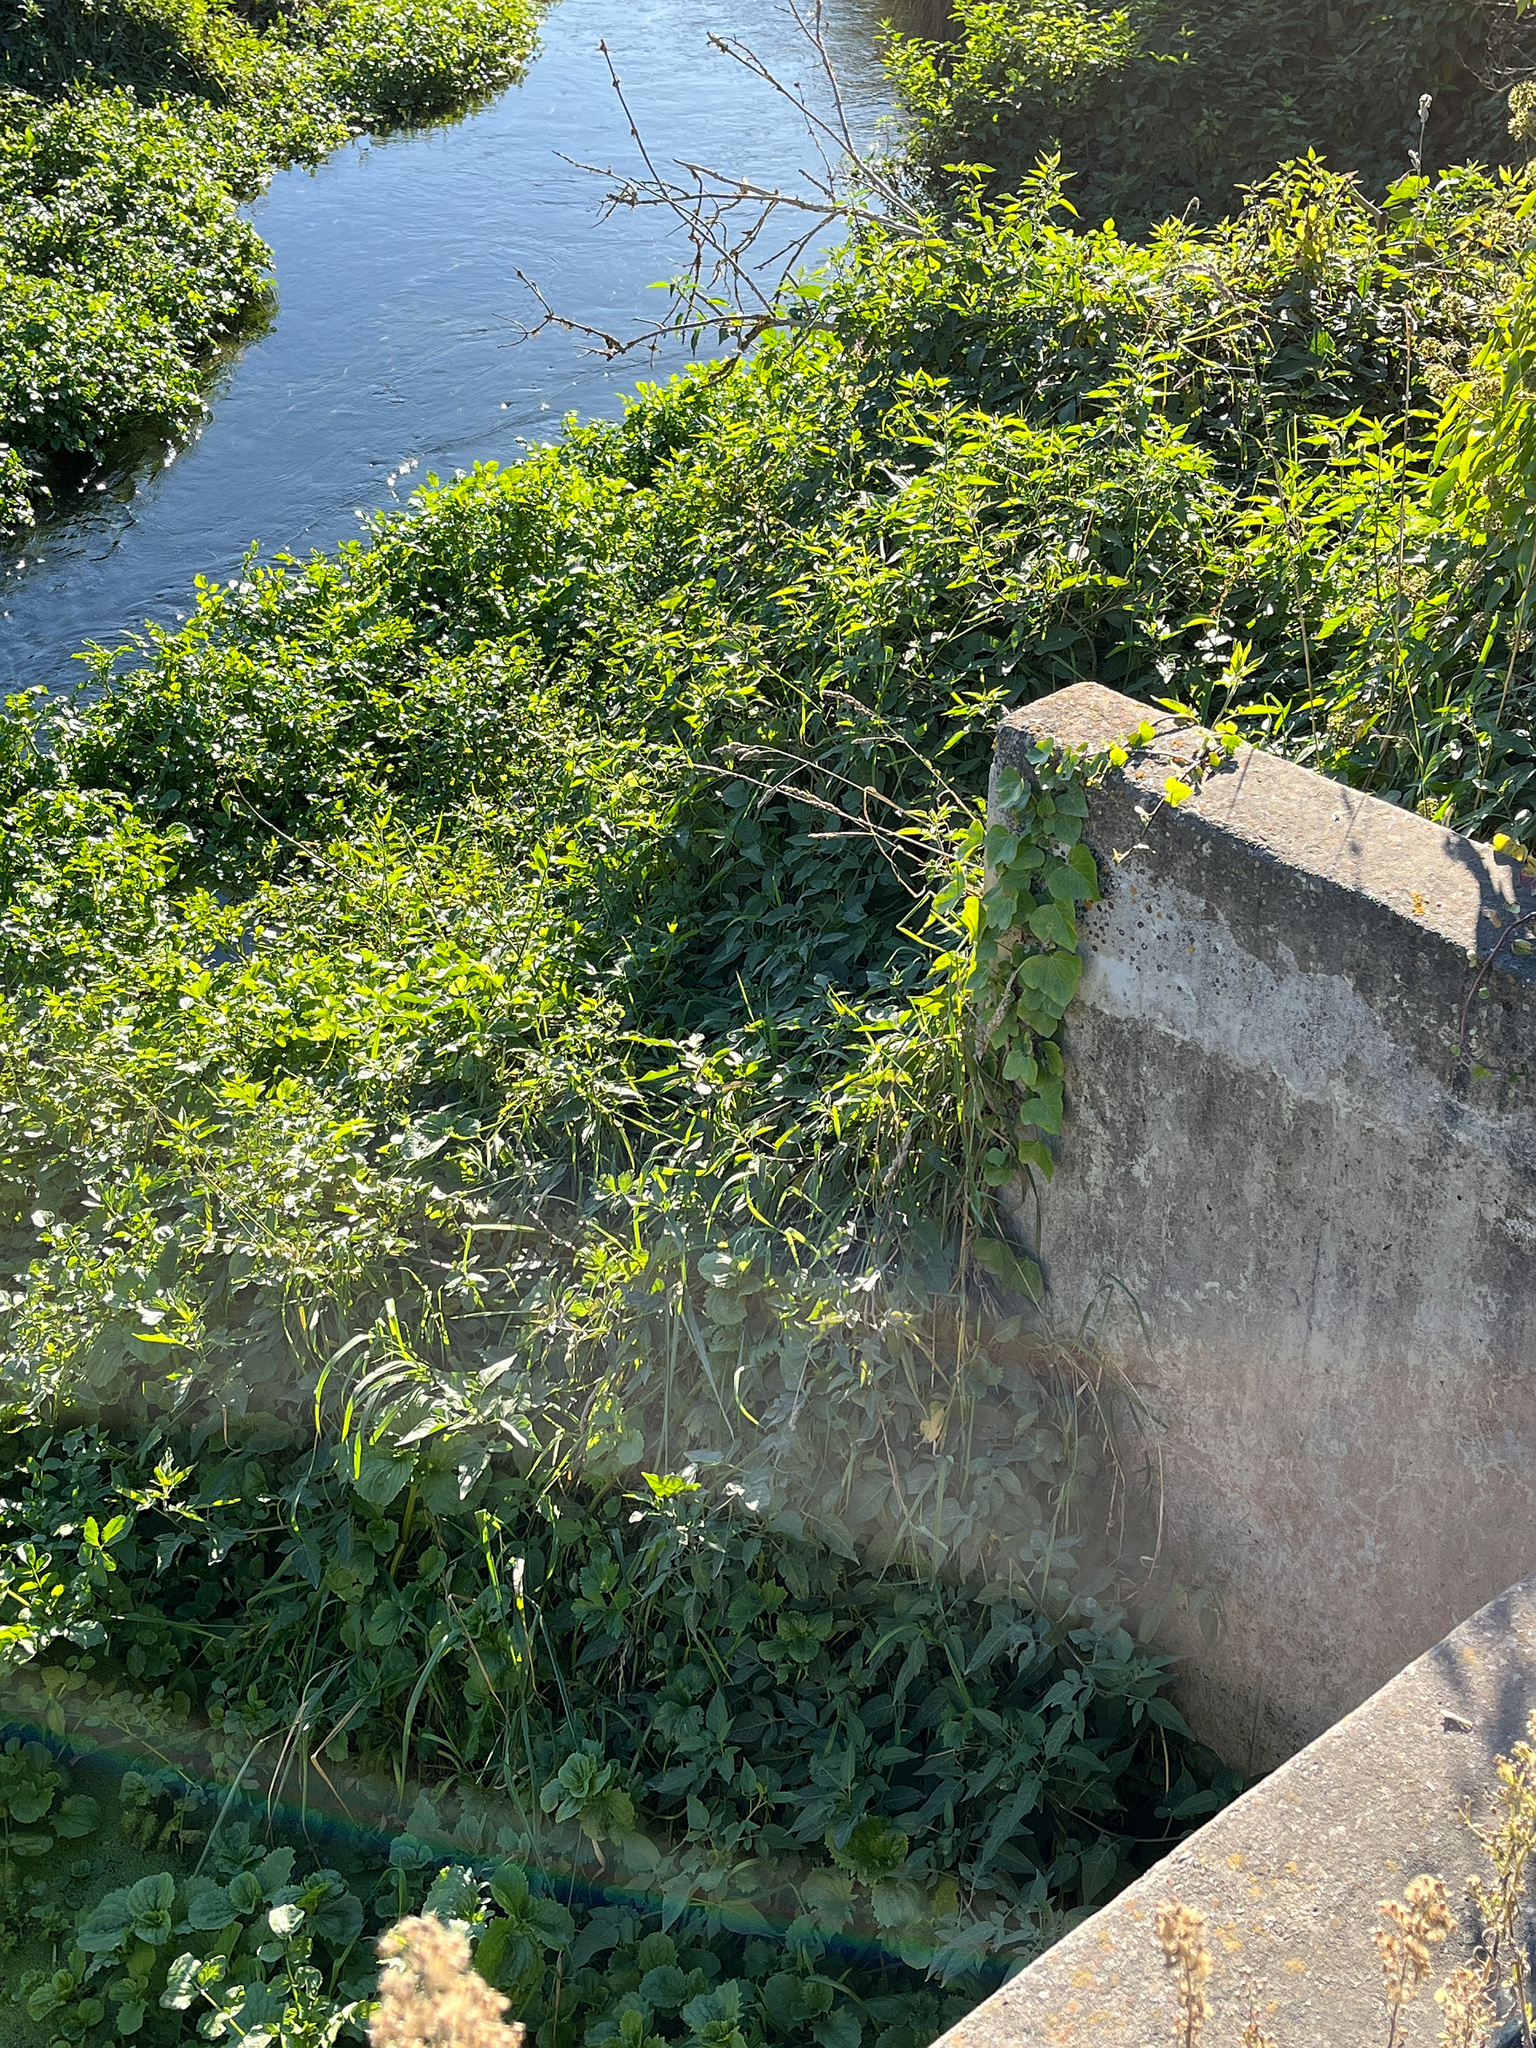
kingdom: Plantae
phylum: Tracheophyta
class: Magnoliopsida
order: Solanales
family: Solanaceae
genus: Solanum
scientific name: Solanum dulcamara
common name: Climbing nightshade
